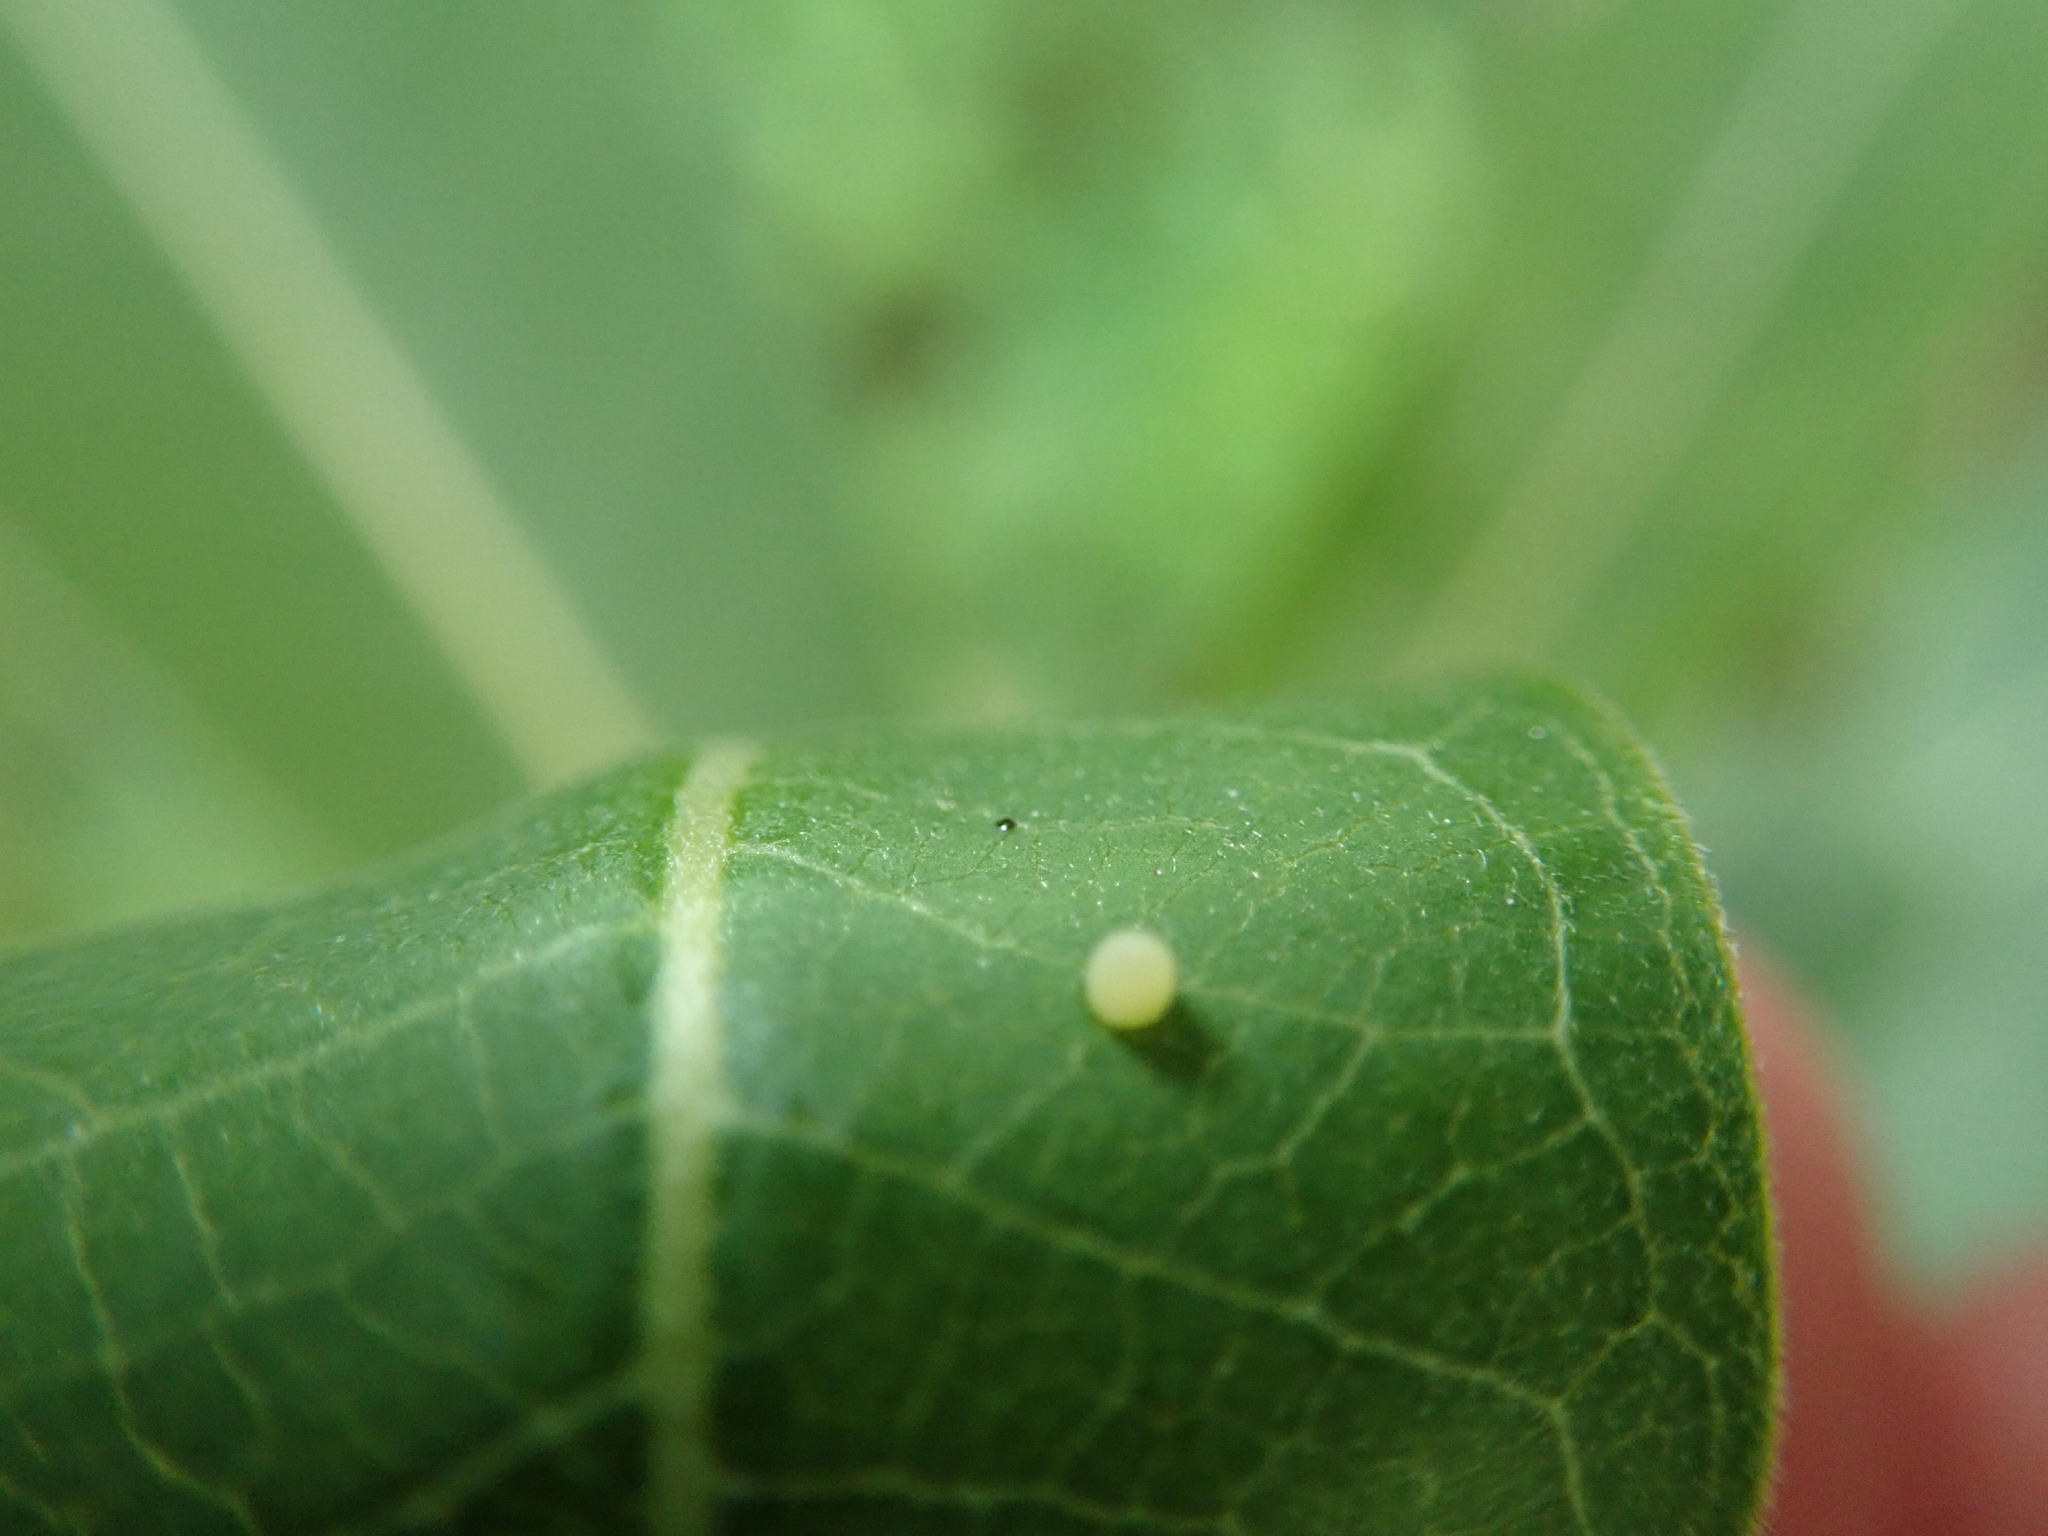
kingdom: Animalia
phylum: Arthropoda
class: Insecta
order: Lepidoptera
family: Nymphalidae
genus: Danaus
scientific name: Danaus plexippus
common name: Monarch
